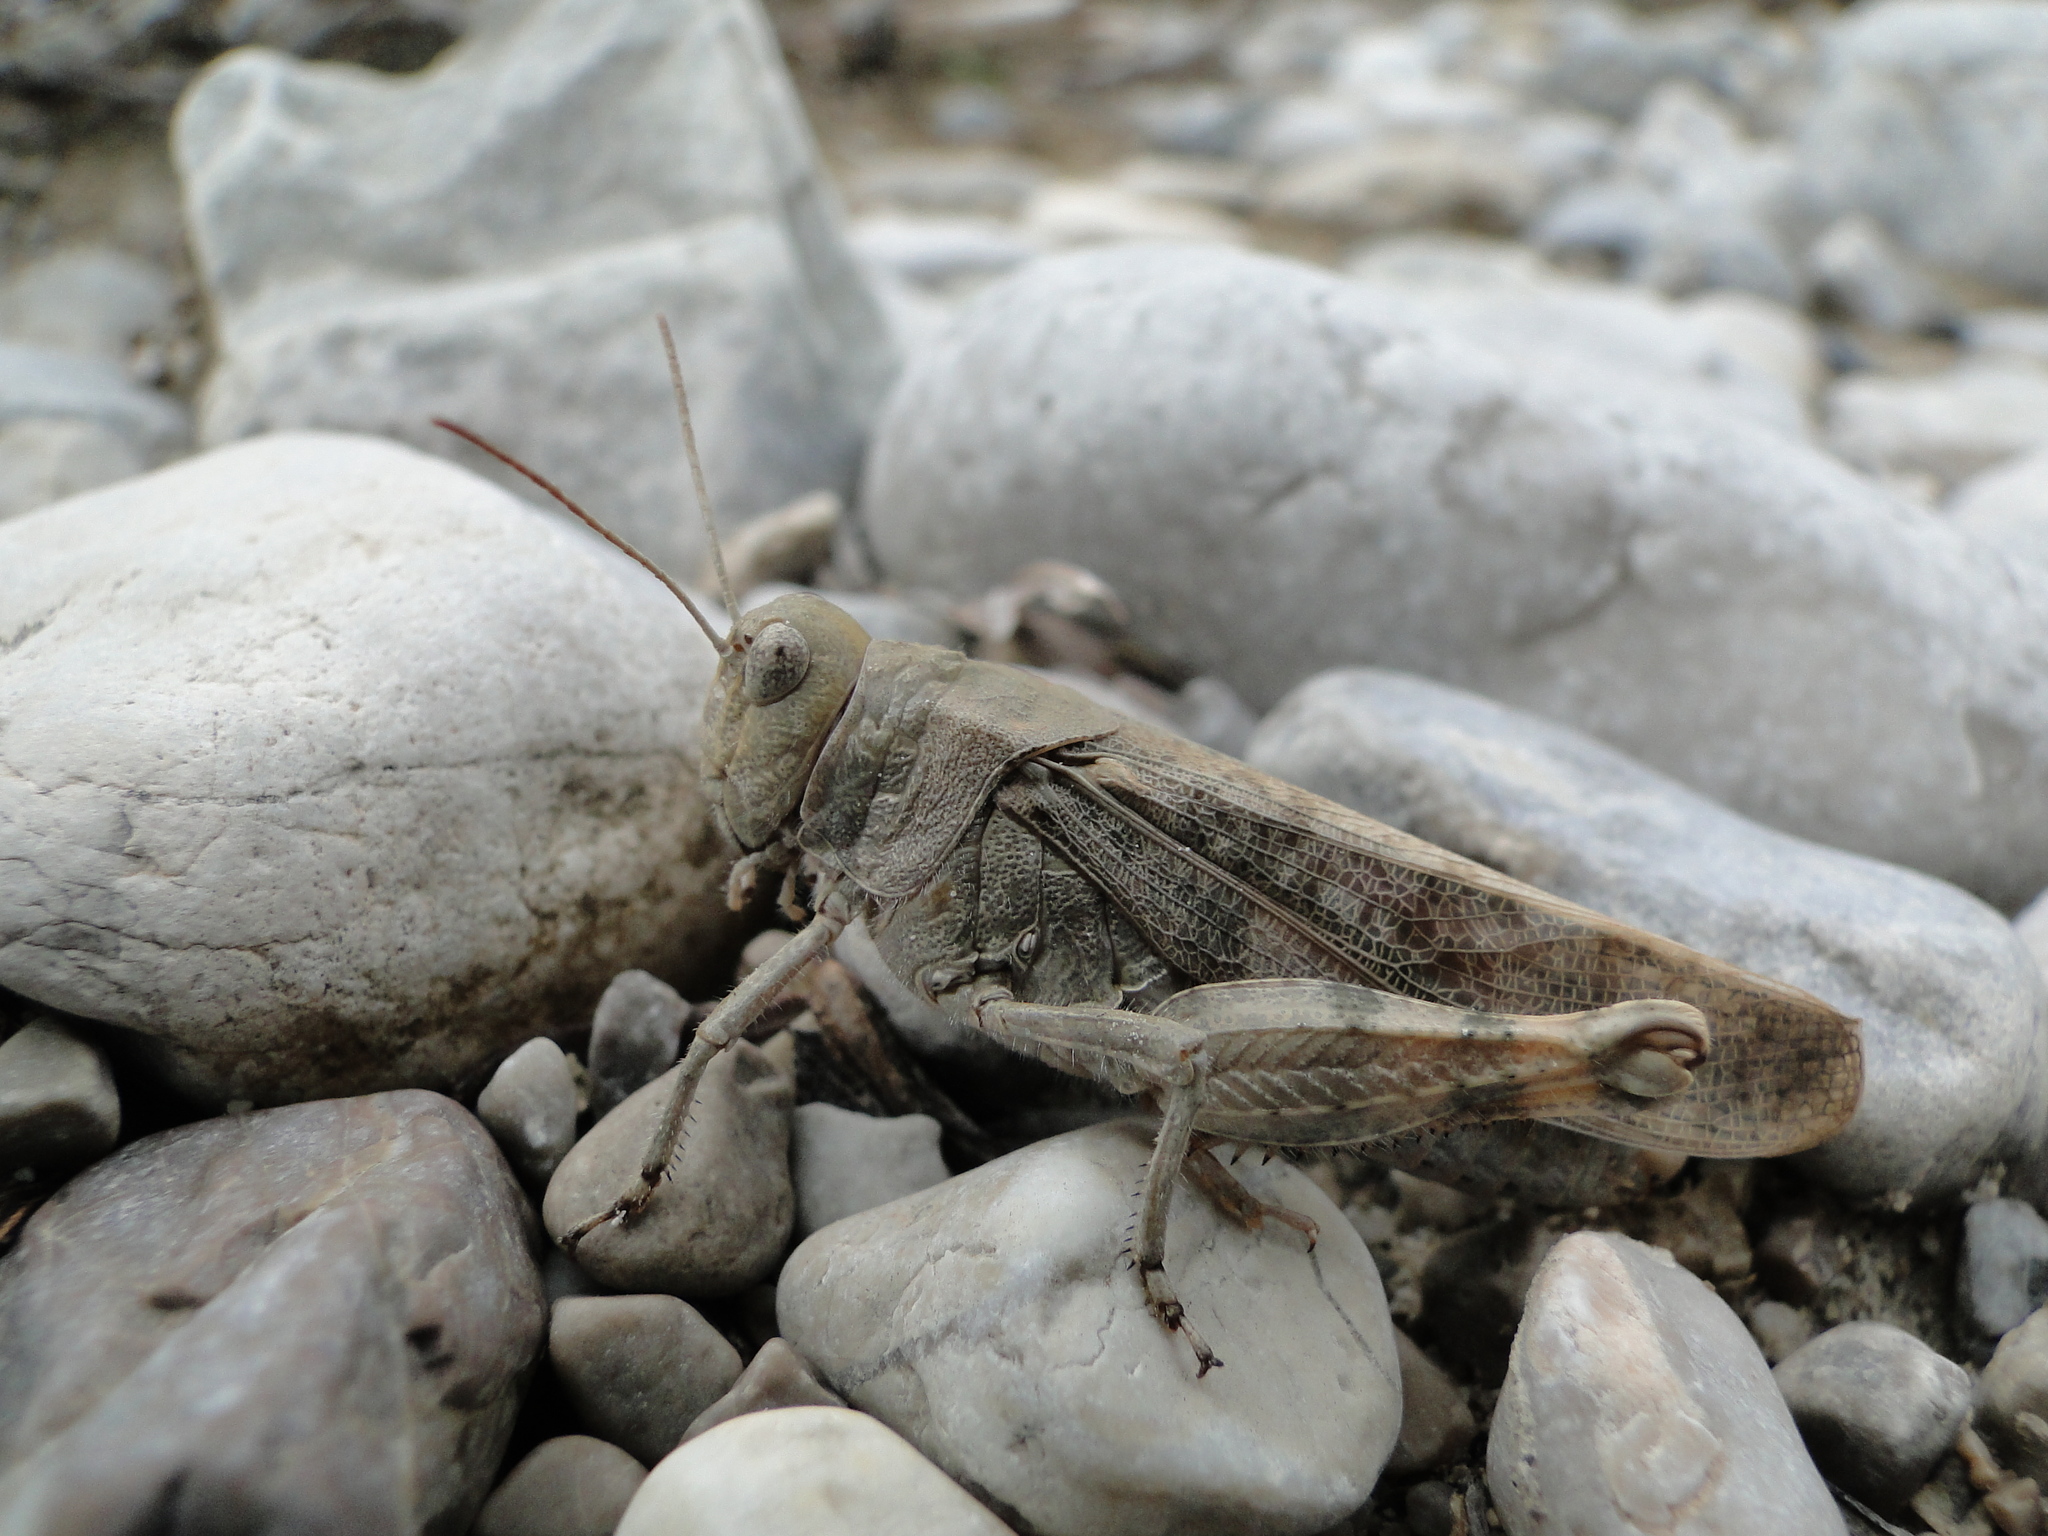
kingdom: Animalia
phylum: Arthropoda
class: Insecta
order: Orthoptera
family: Acrididae
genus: Bryodemella
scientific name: Bryodemella tuberculata
